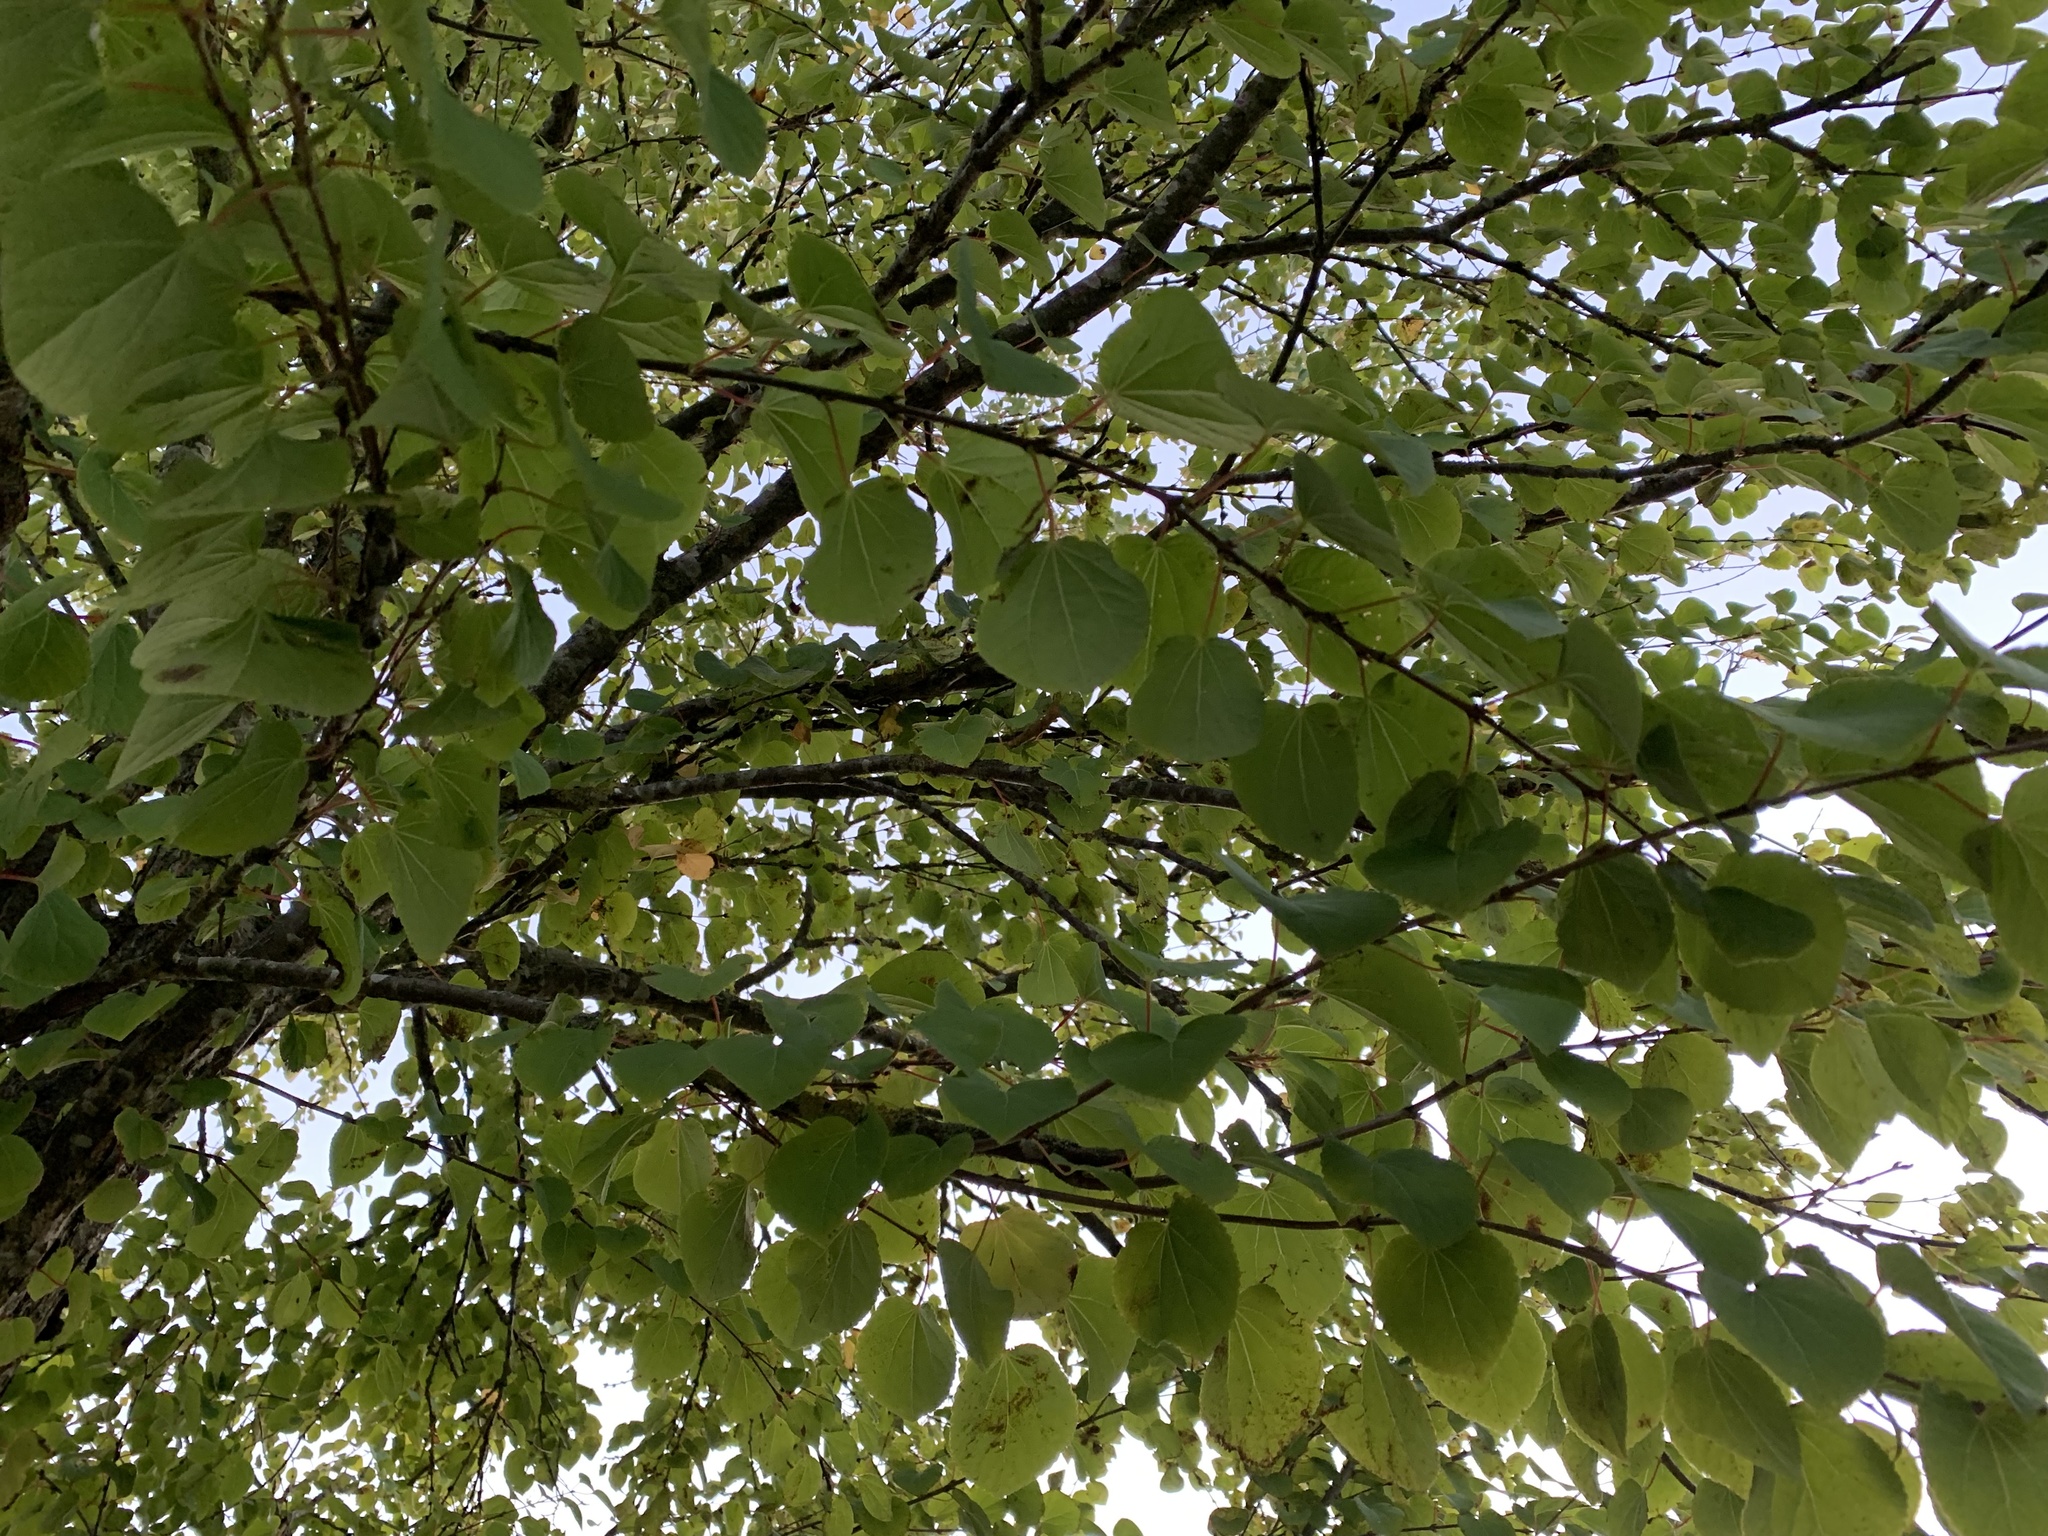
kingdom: Plantae
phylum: Tracheophyta
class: Magnoliopsida
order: Saxifragales
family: Cercidiphyllaceae
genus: Cercidiphyllum
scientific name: Cercidiphyllum japonicum
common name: Katsura tree
